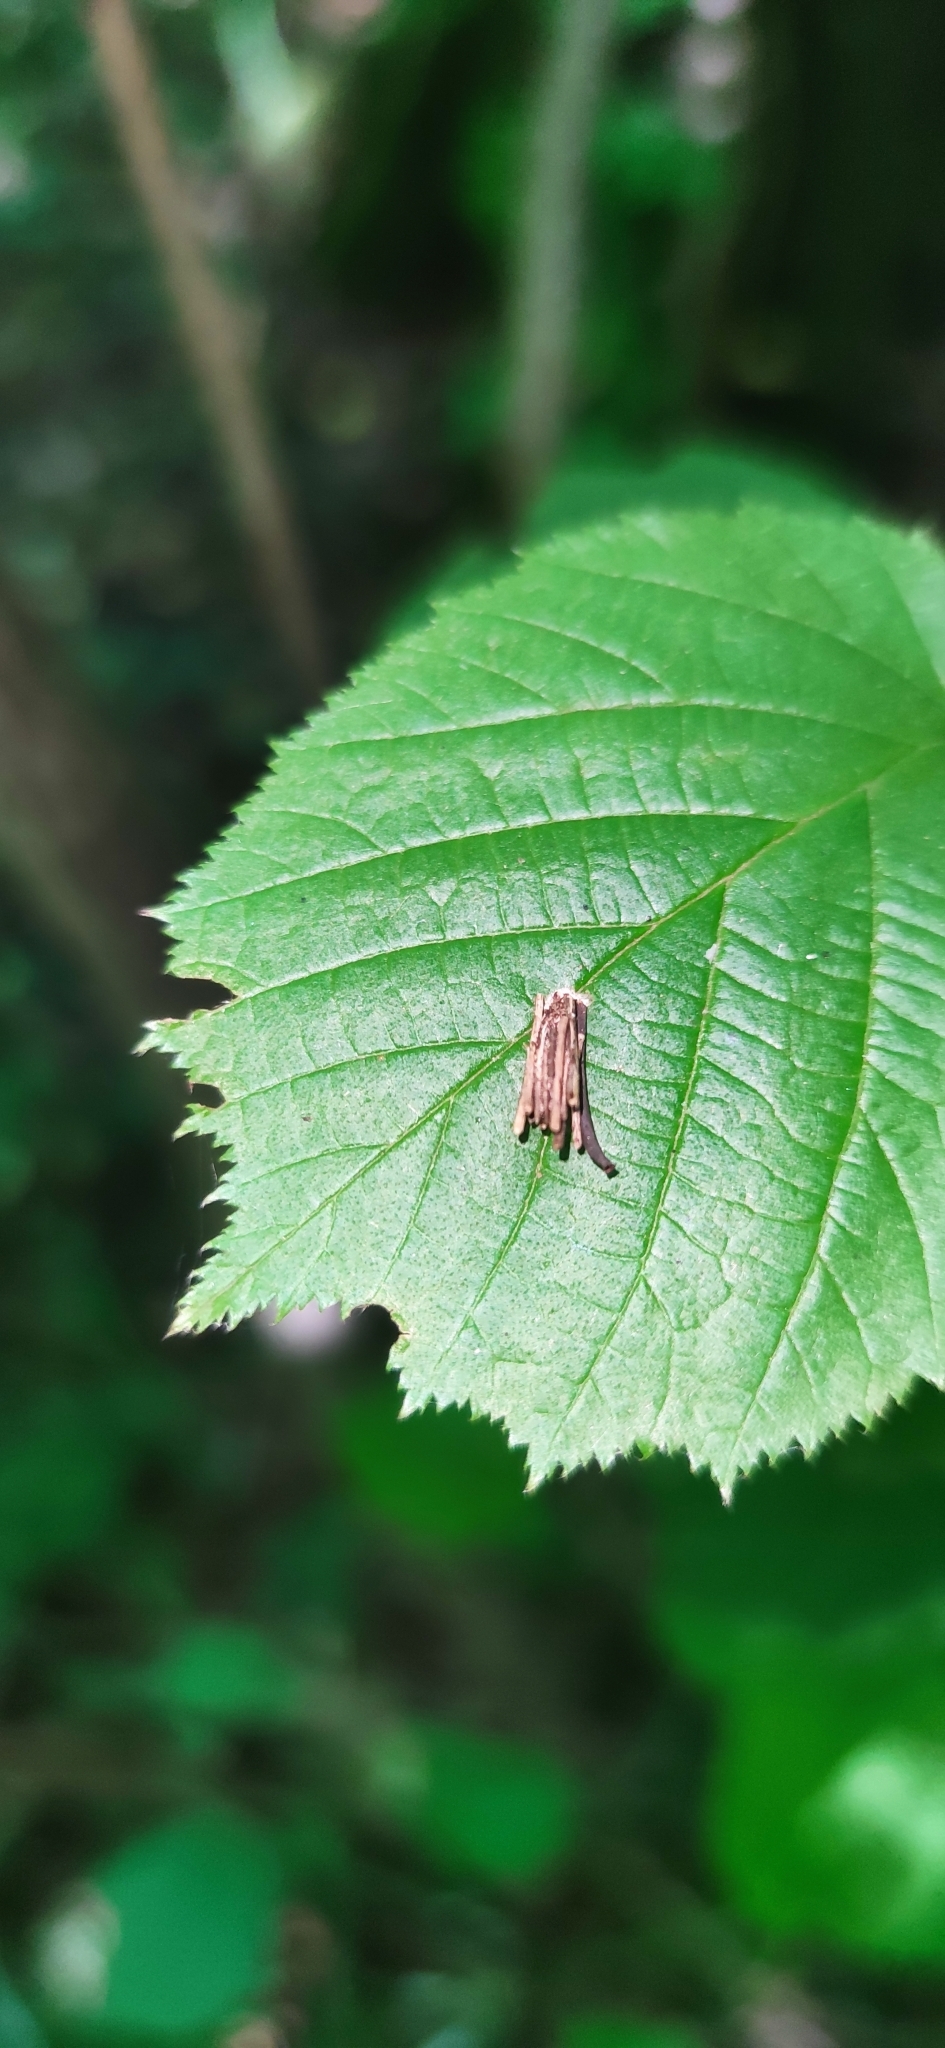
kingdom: Animalia
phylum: Arthropoda
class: Insecta
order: Lepidoptera
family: Psychidae
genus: Psyche
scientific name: Psyche casta
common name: Common sweep
